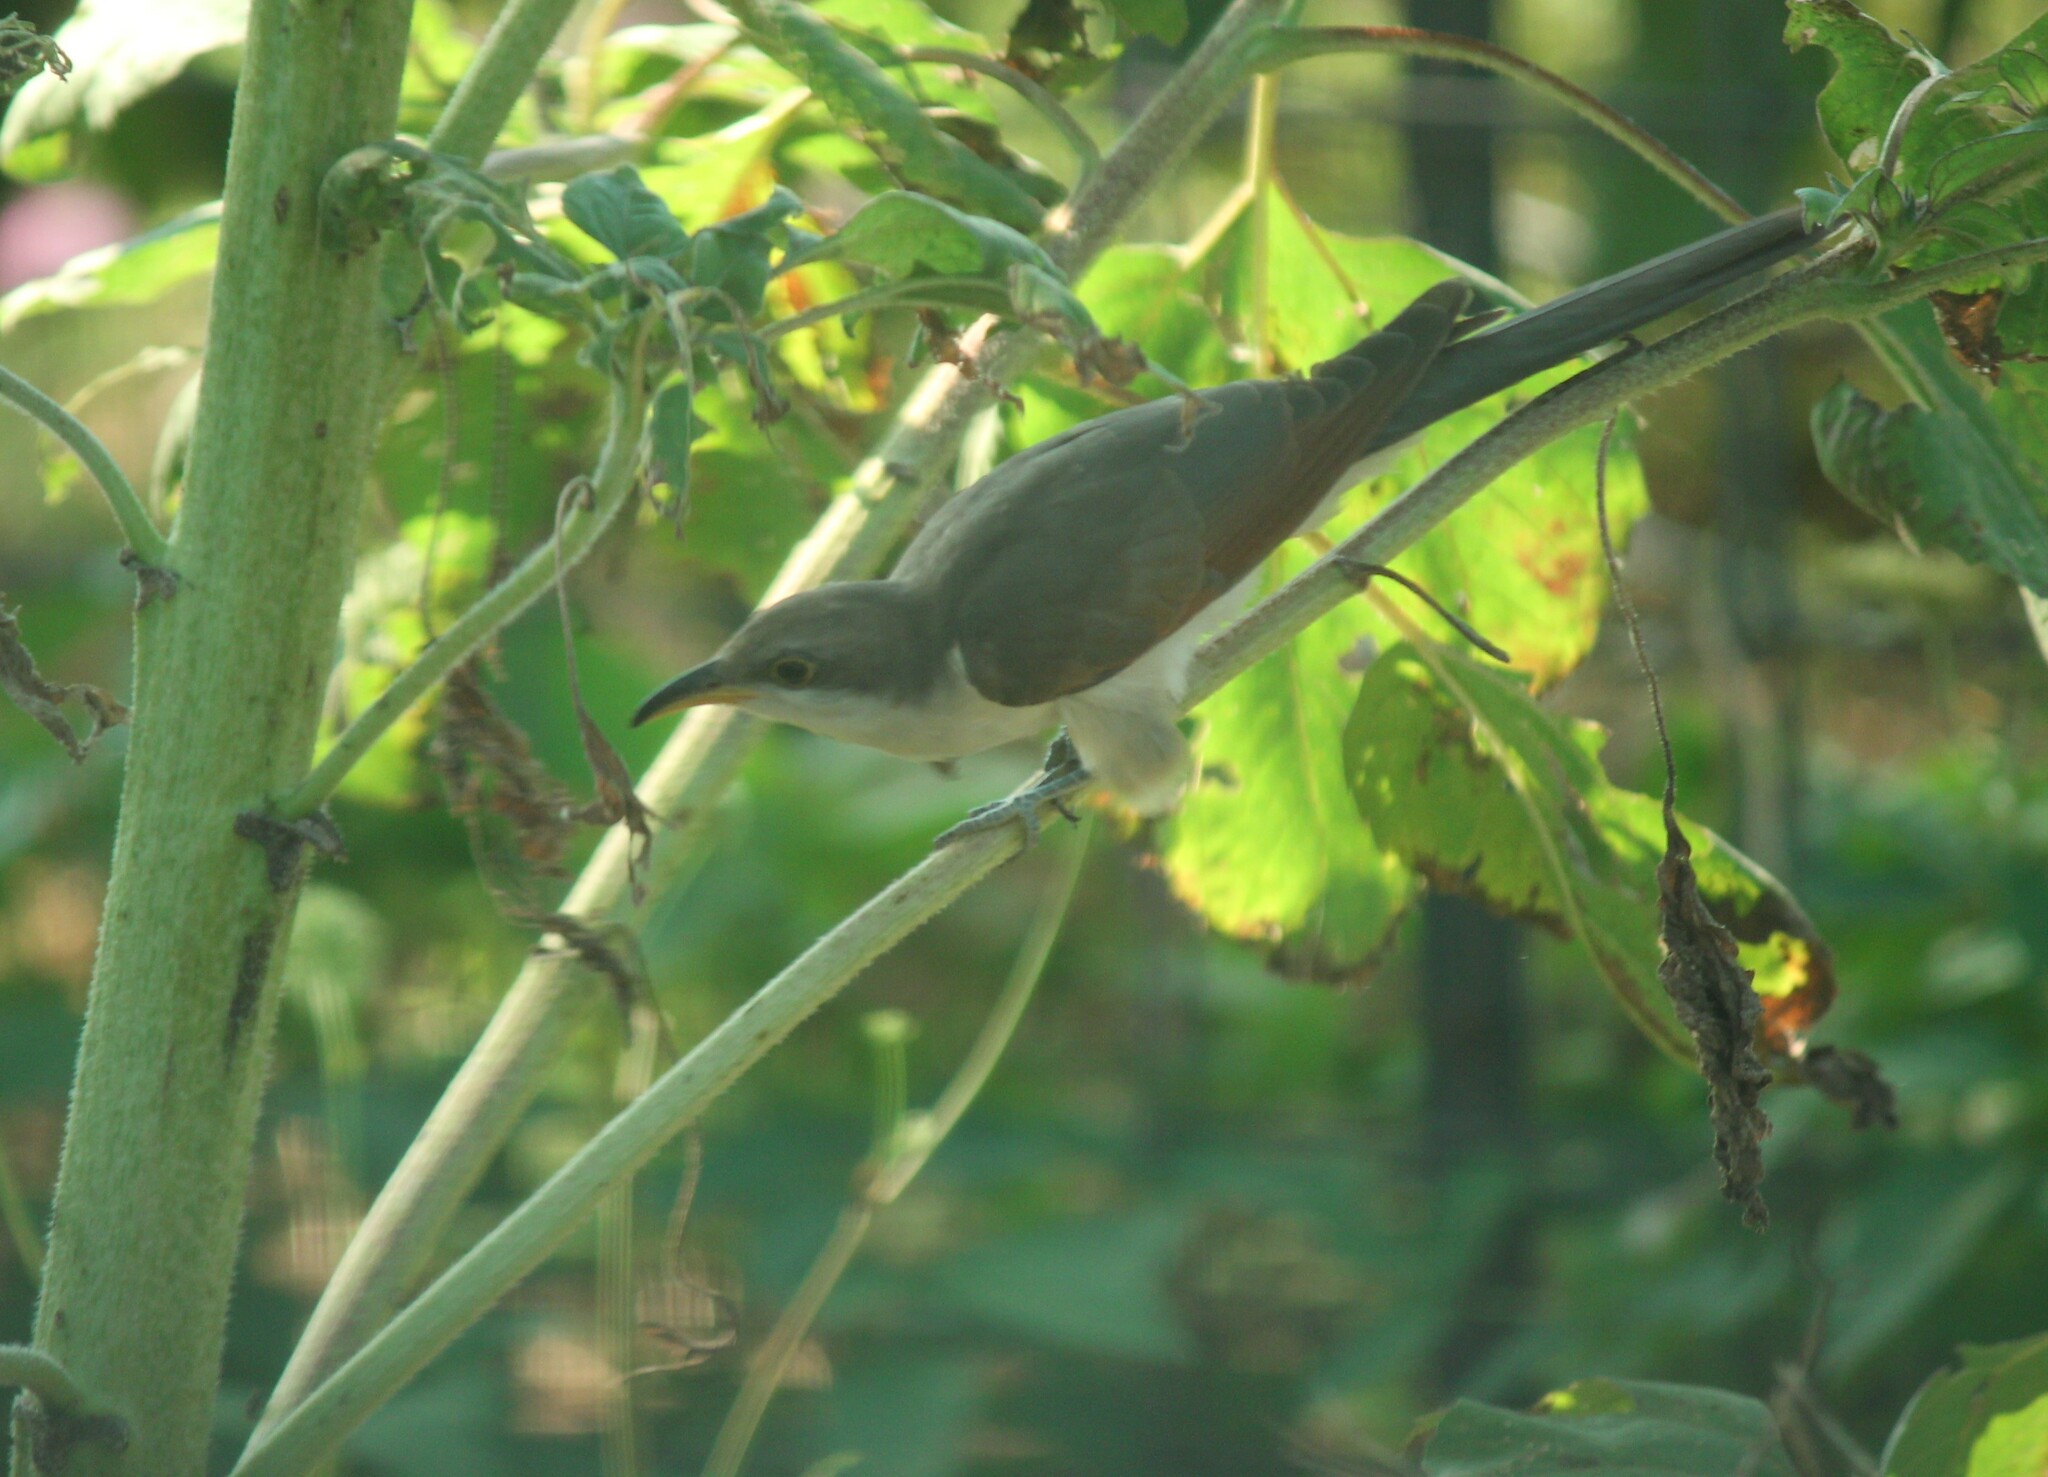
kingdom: Animalia
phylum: Chordata
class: Aves
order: Cuculiformes
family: Cuculidae
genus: Coccyzus
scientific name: Coccyzus americanus
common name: Yellow-billed cuckoo
